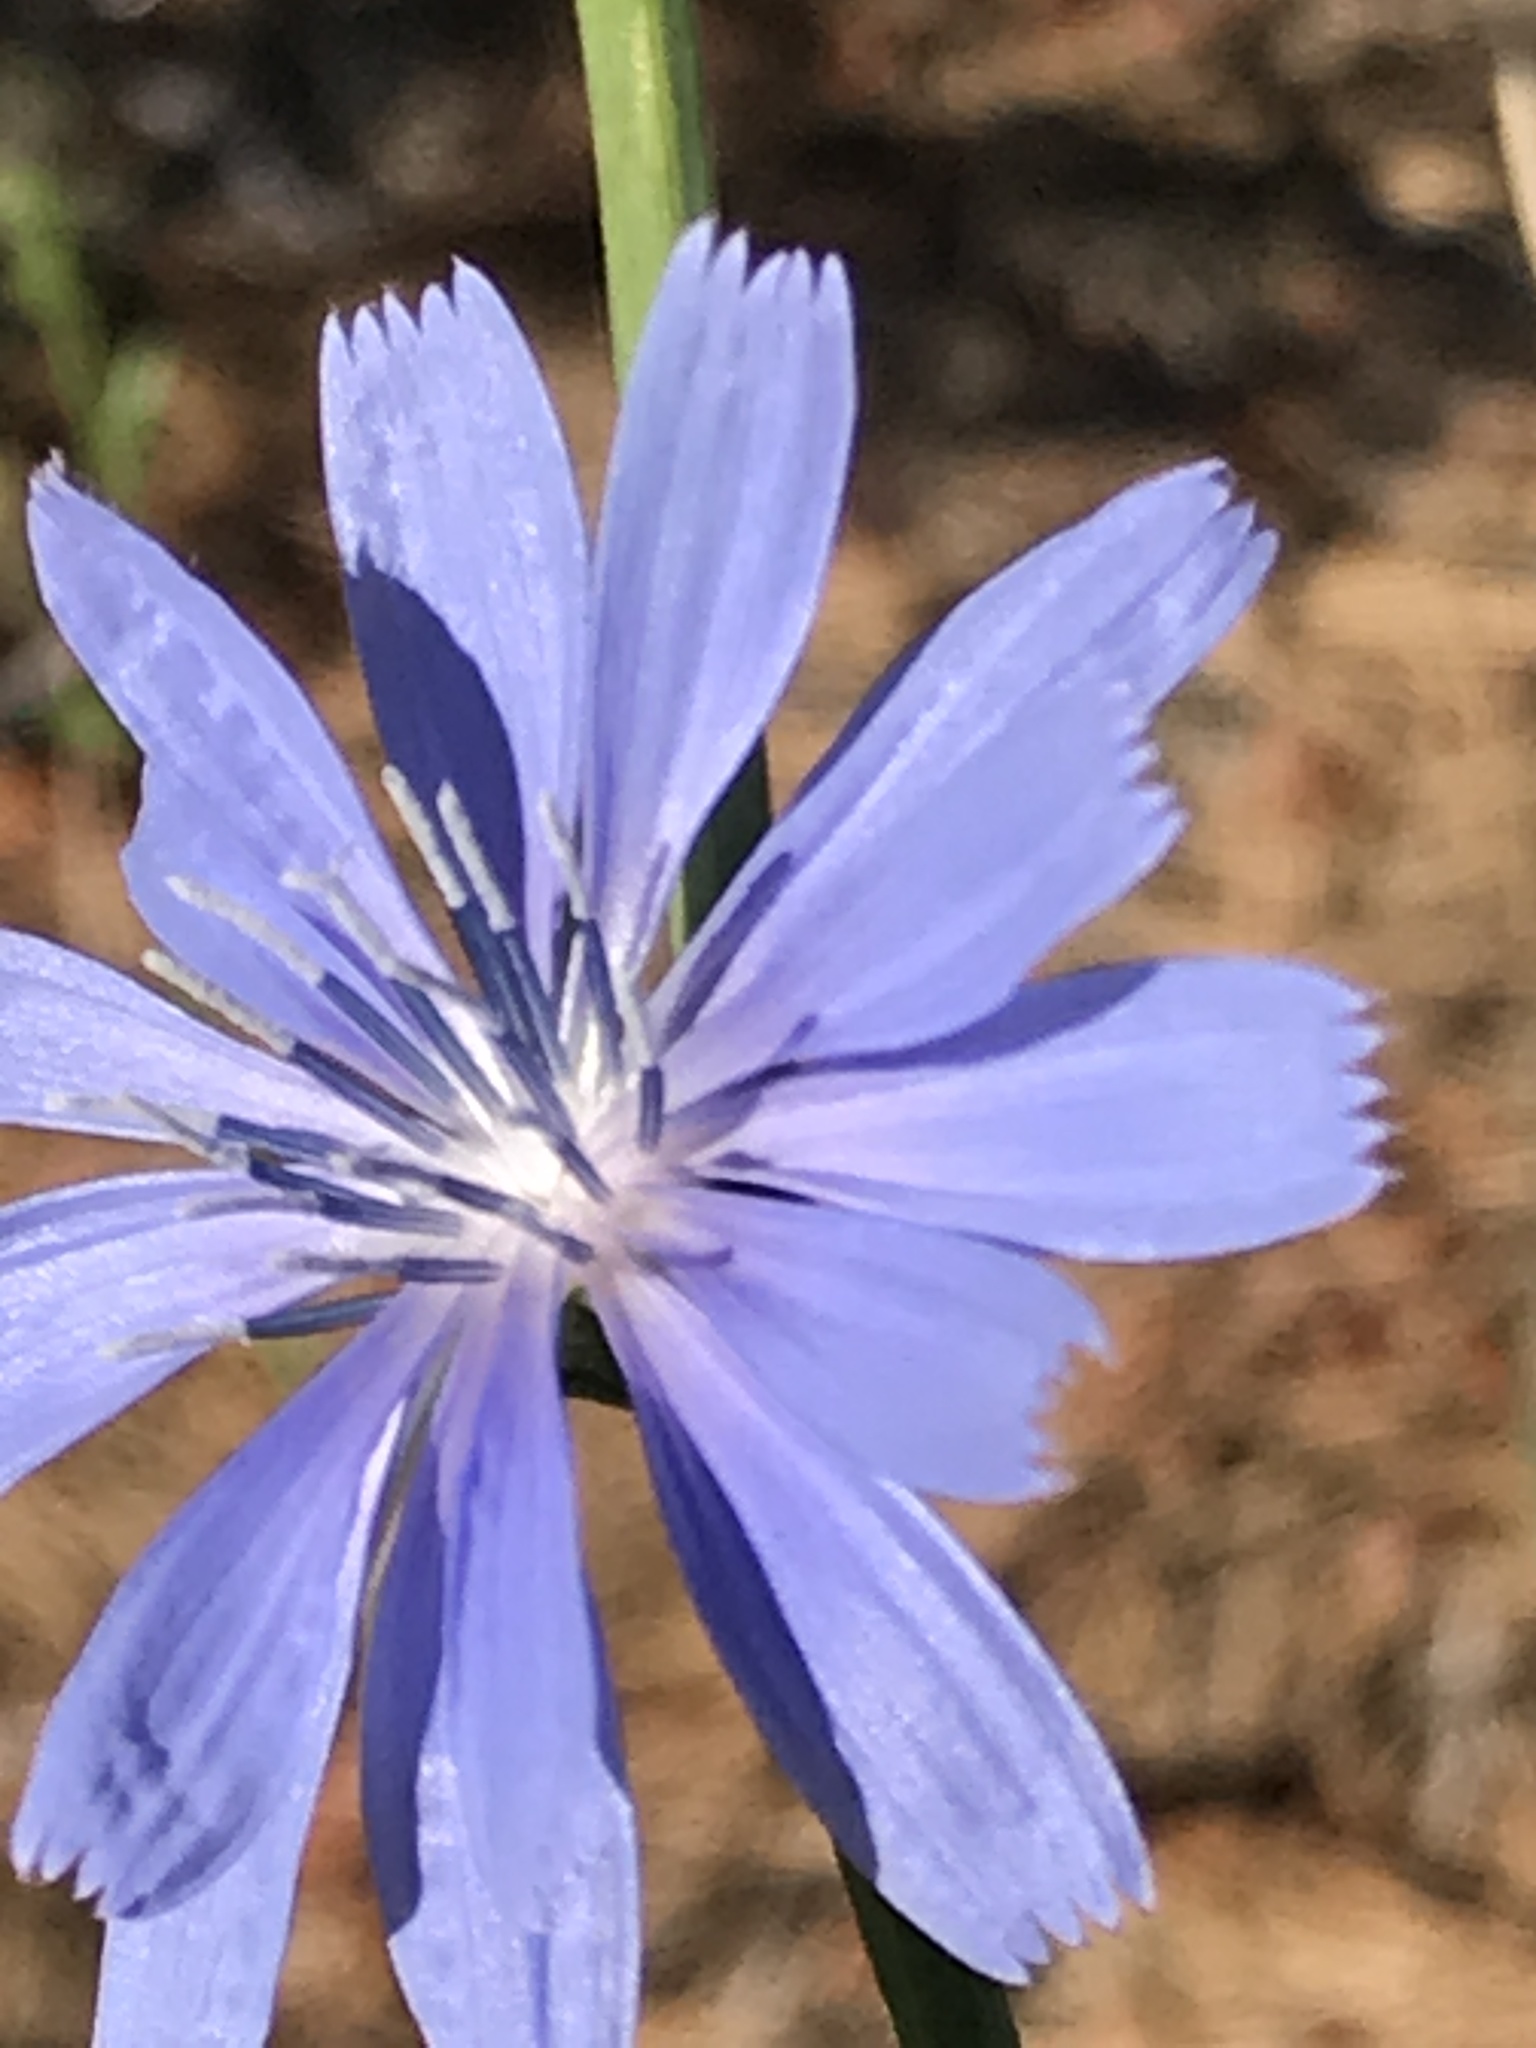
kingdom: Plantae
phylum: Tracheophyta
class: Magnoliopsida
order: Asterales
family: Asteraceae
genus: Cichorium
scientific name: Cichorium intybus
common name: Chicory
